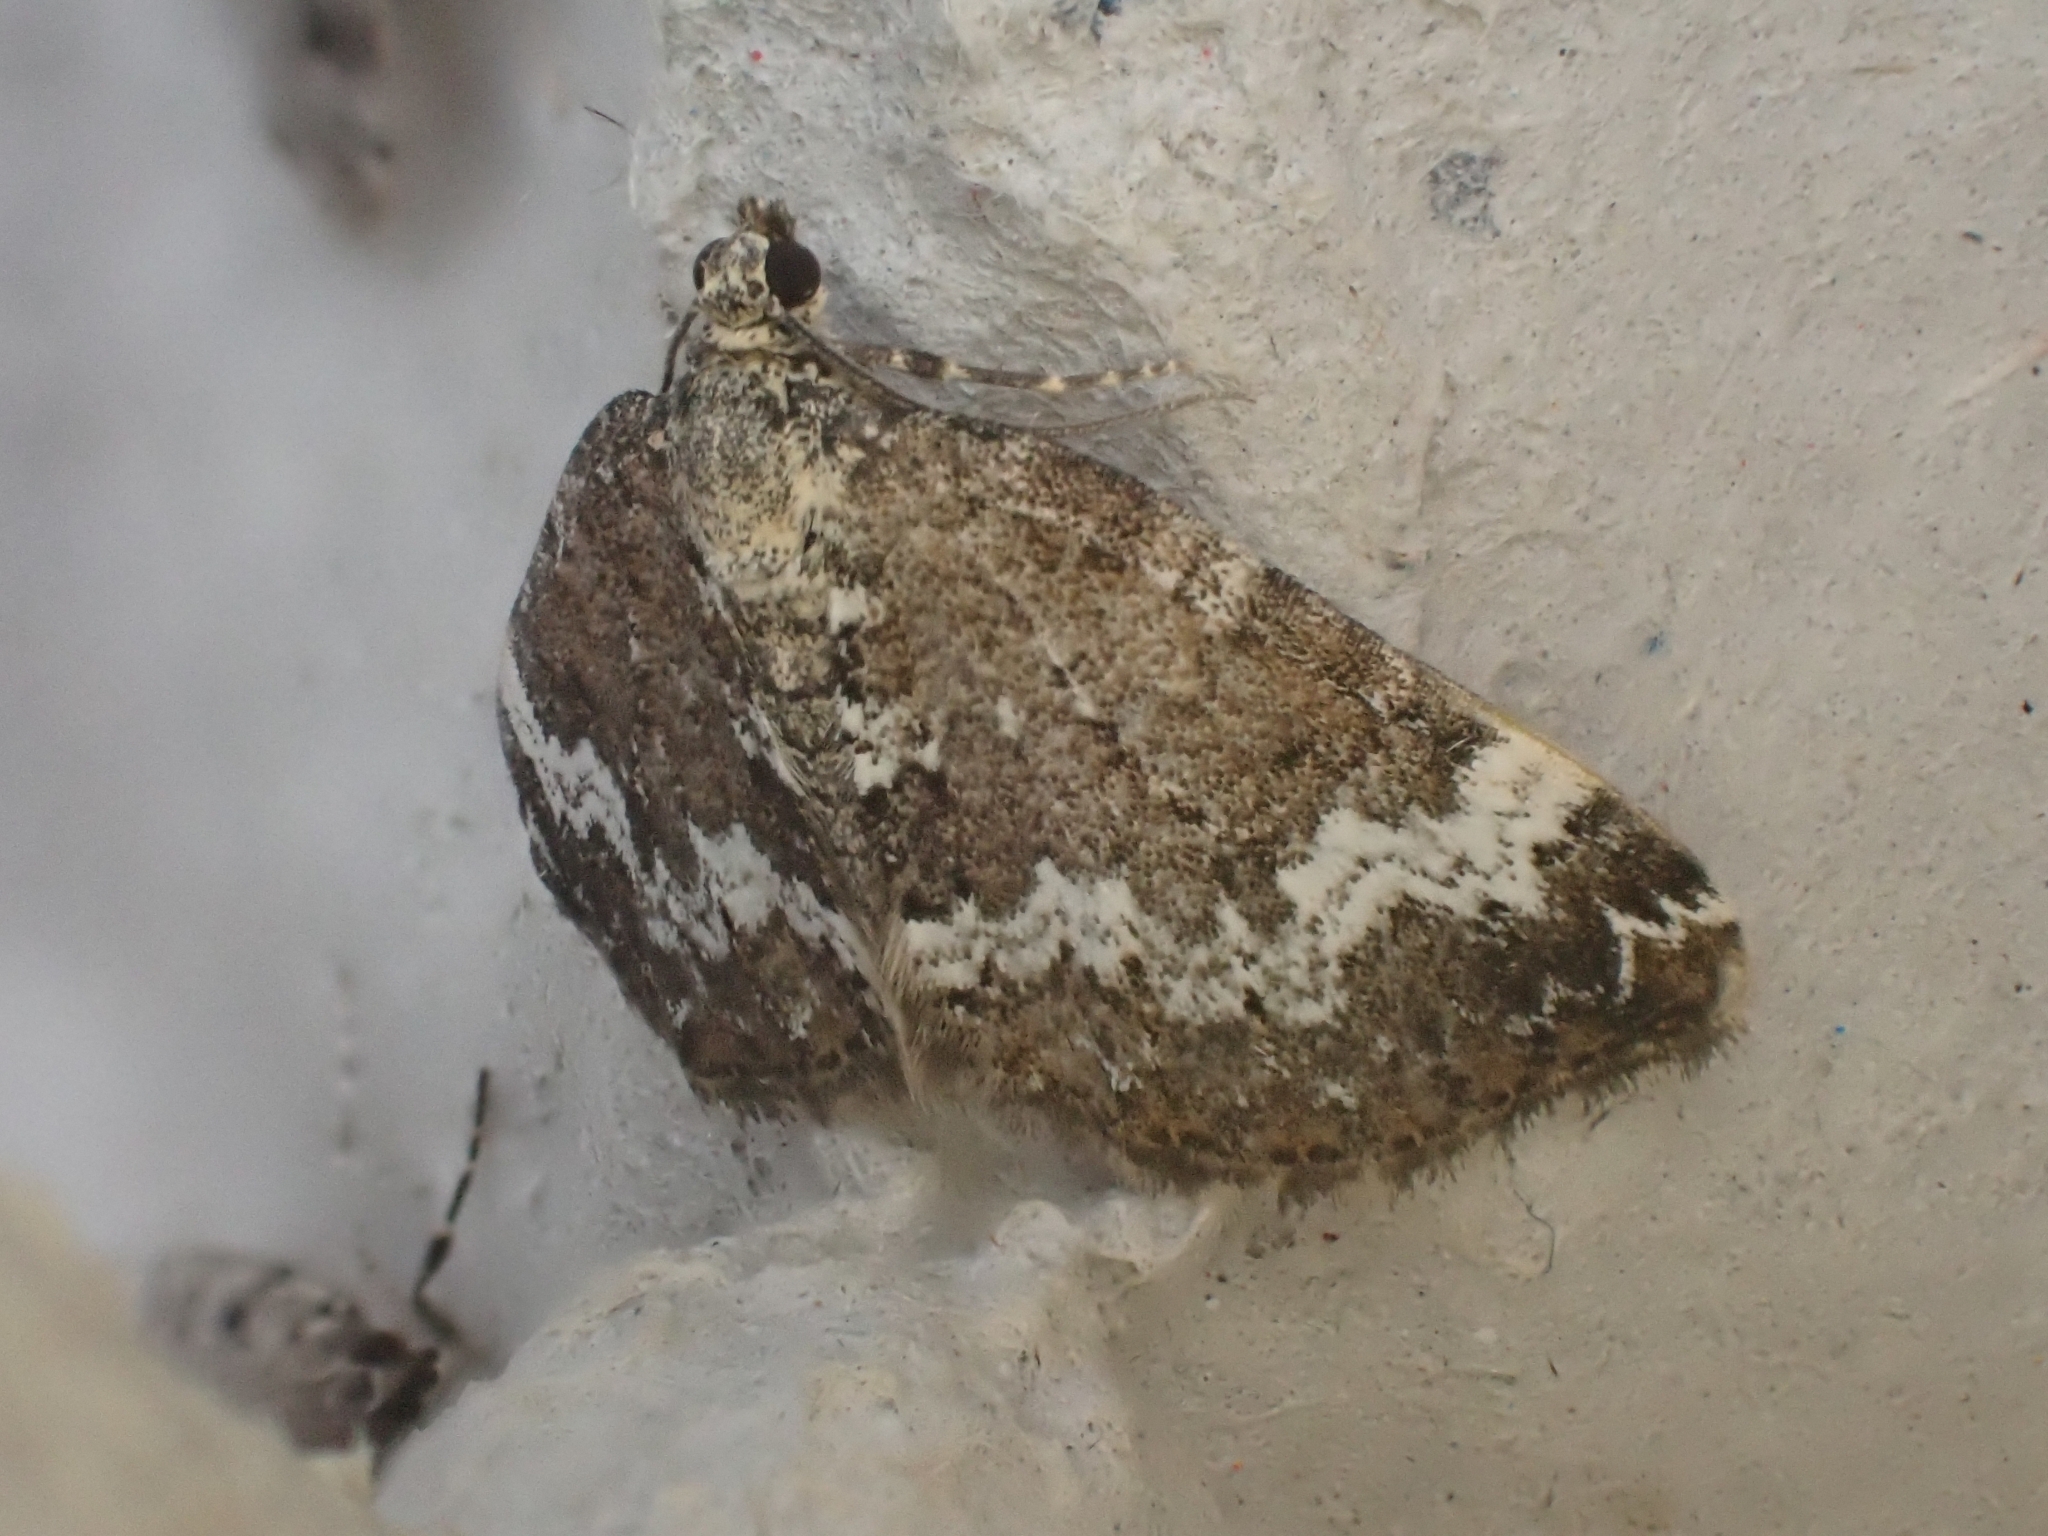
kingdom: Animalia
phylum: Arthropoda
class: Insecta
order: Lepidoptera
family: Geometridae
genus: Perizoma
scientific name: Perizoma alchemillata
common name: Small rivulet
